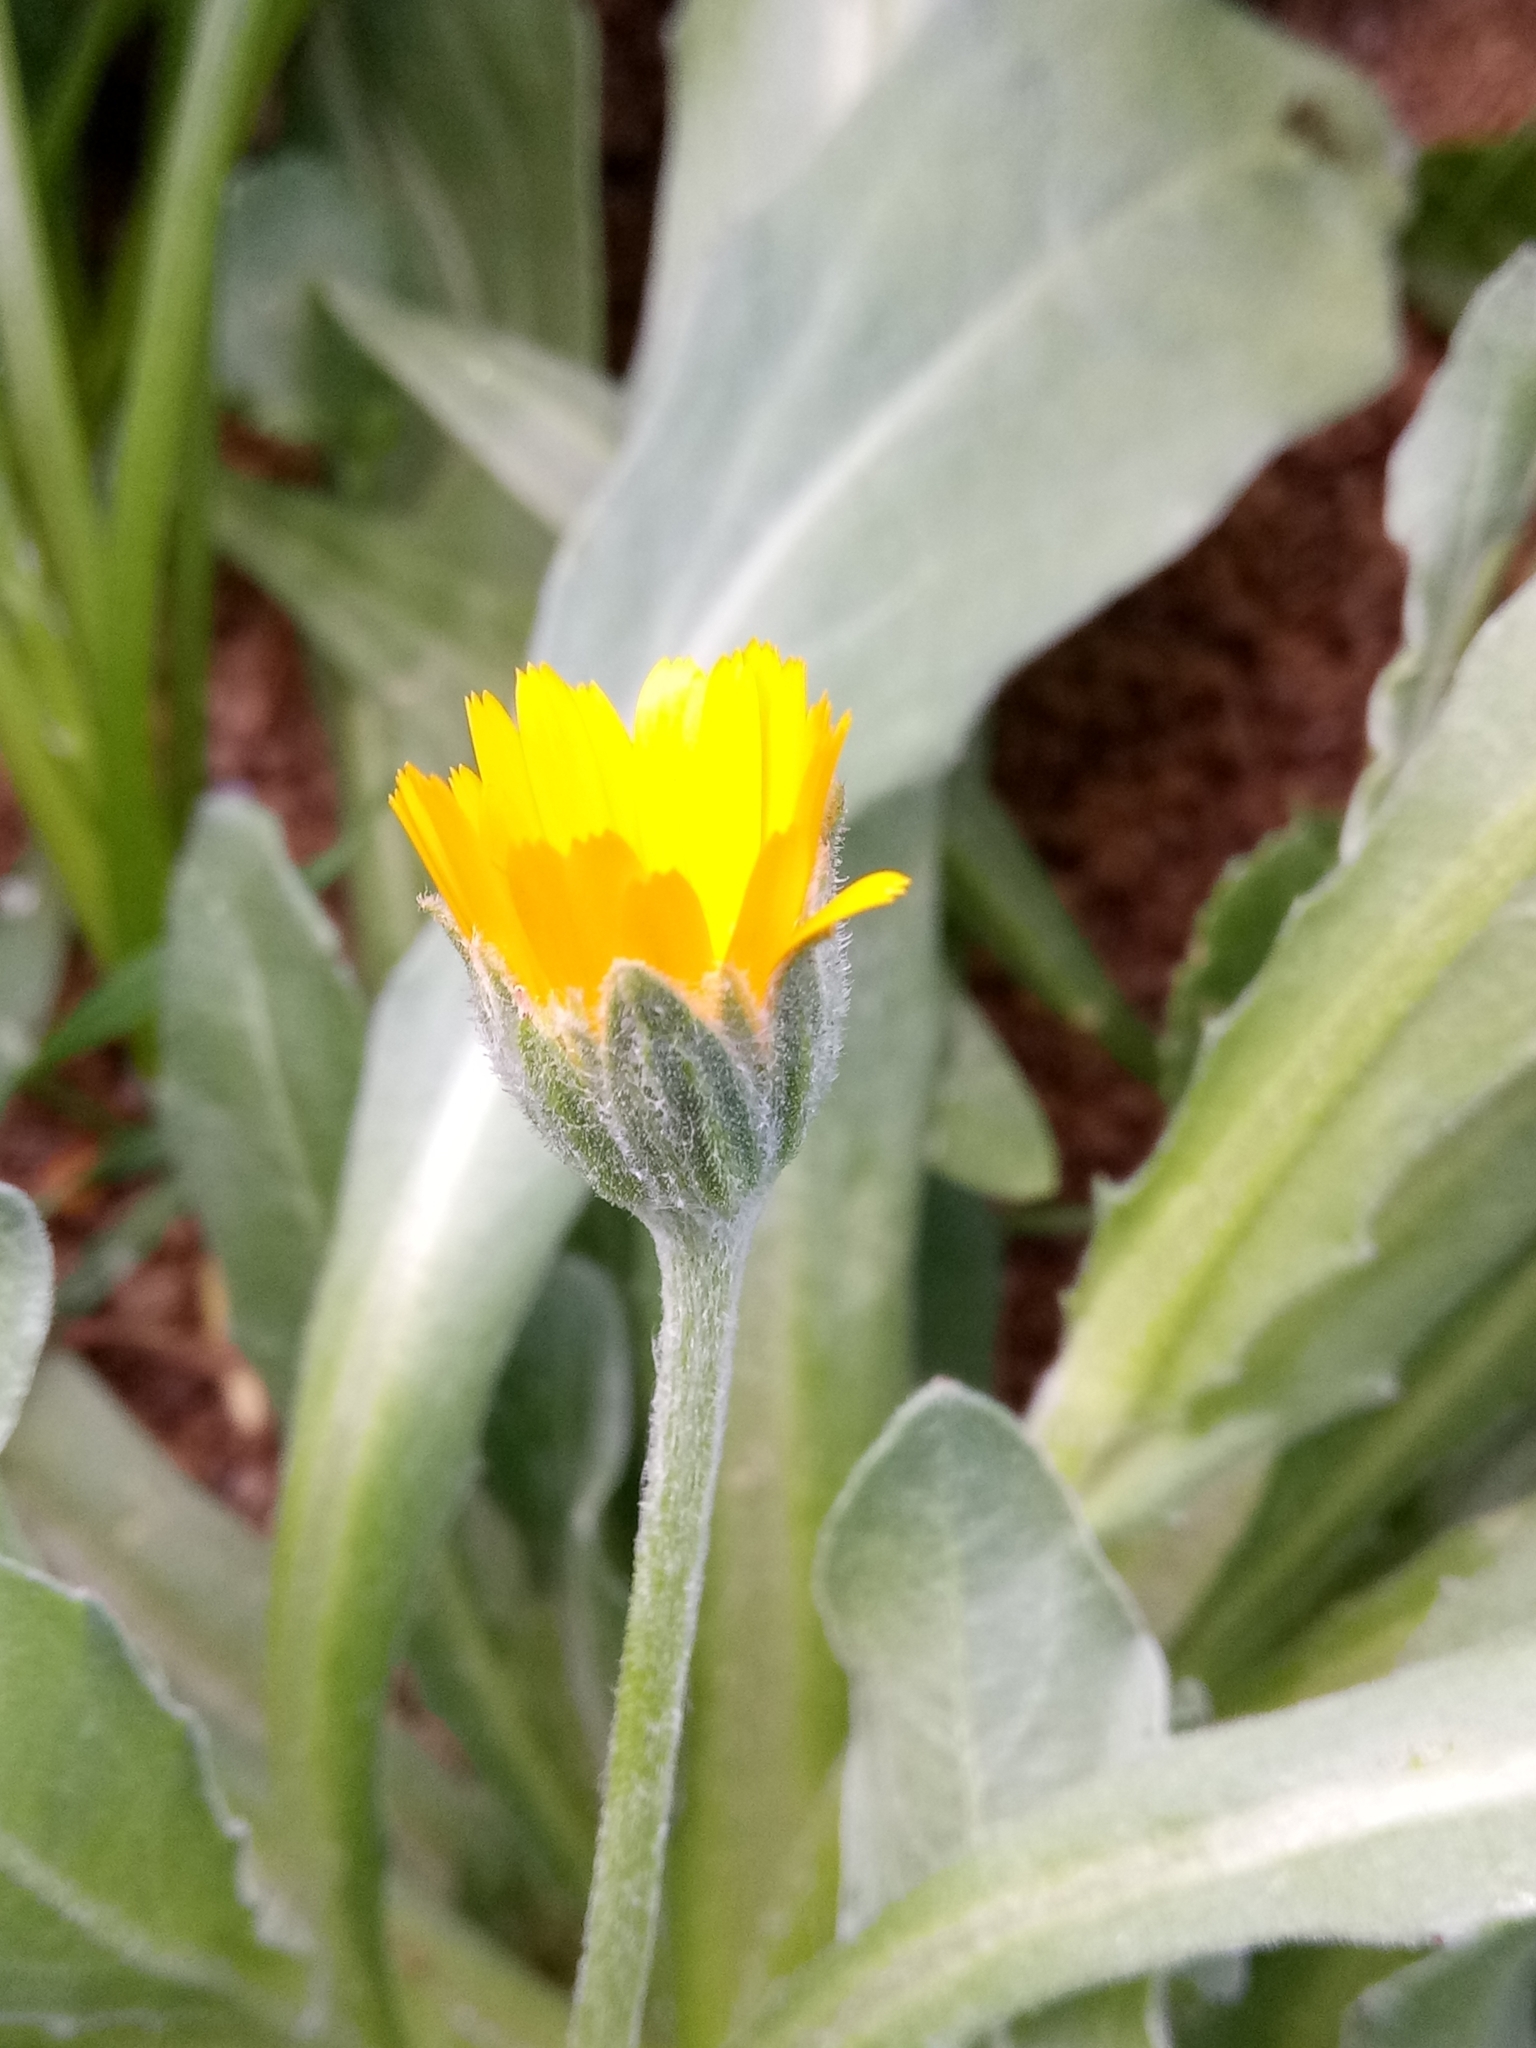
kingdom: Plantae
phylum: Tracheophyta
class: Magnoliopsida
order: Asterales
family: Asteraceae
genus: Calendula
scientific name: Calendula arvensis
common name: Field marigold
